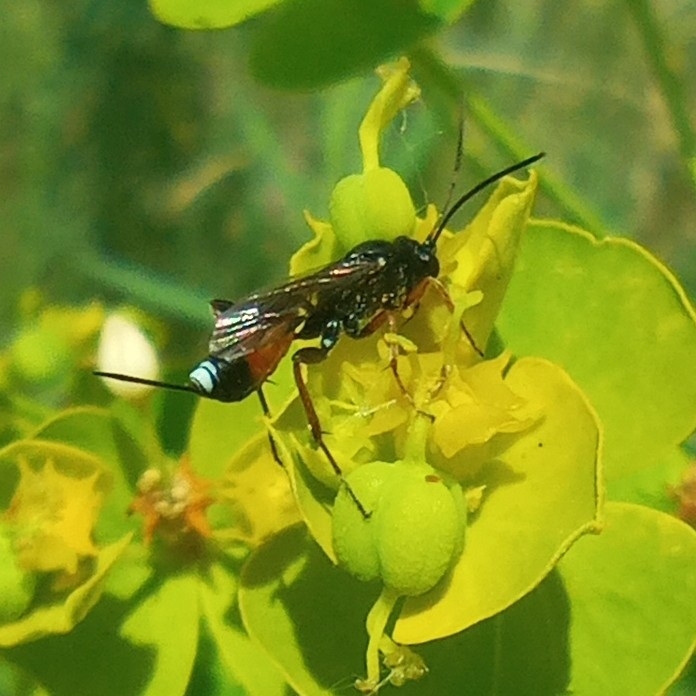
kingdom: Animalia
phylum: Arthropoda
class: Insecta
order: Hymenoptera
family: Ichneumonidae
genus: Aritranis
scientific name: Aritranis director
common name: Ichneumonid wasp
